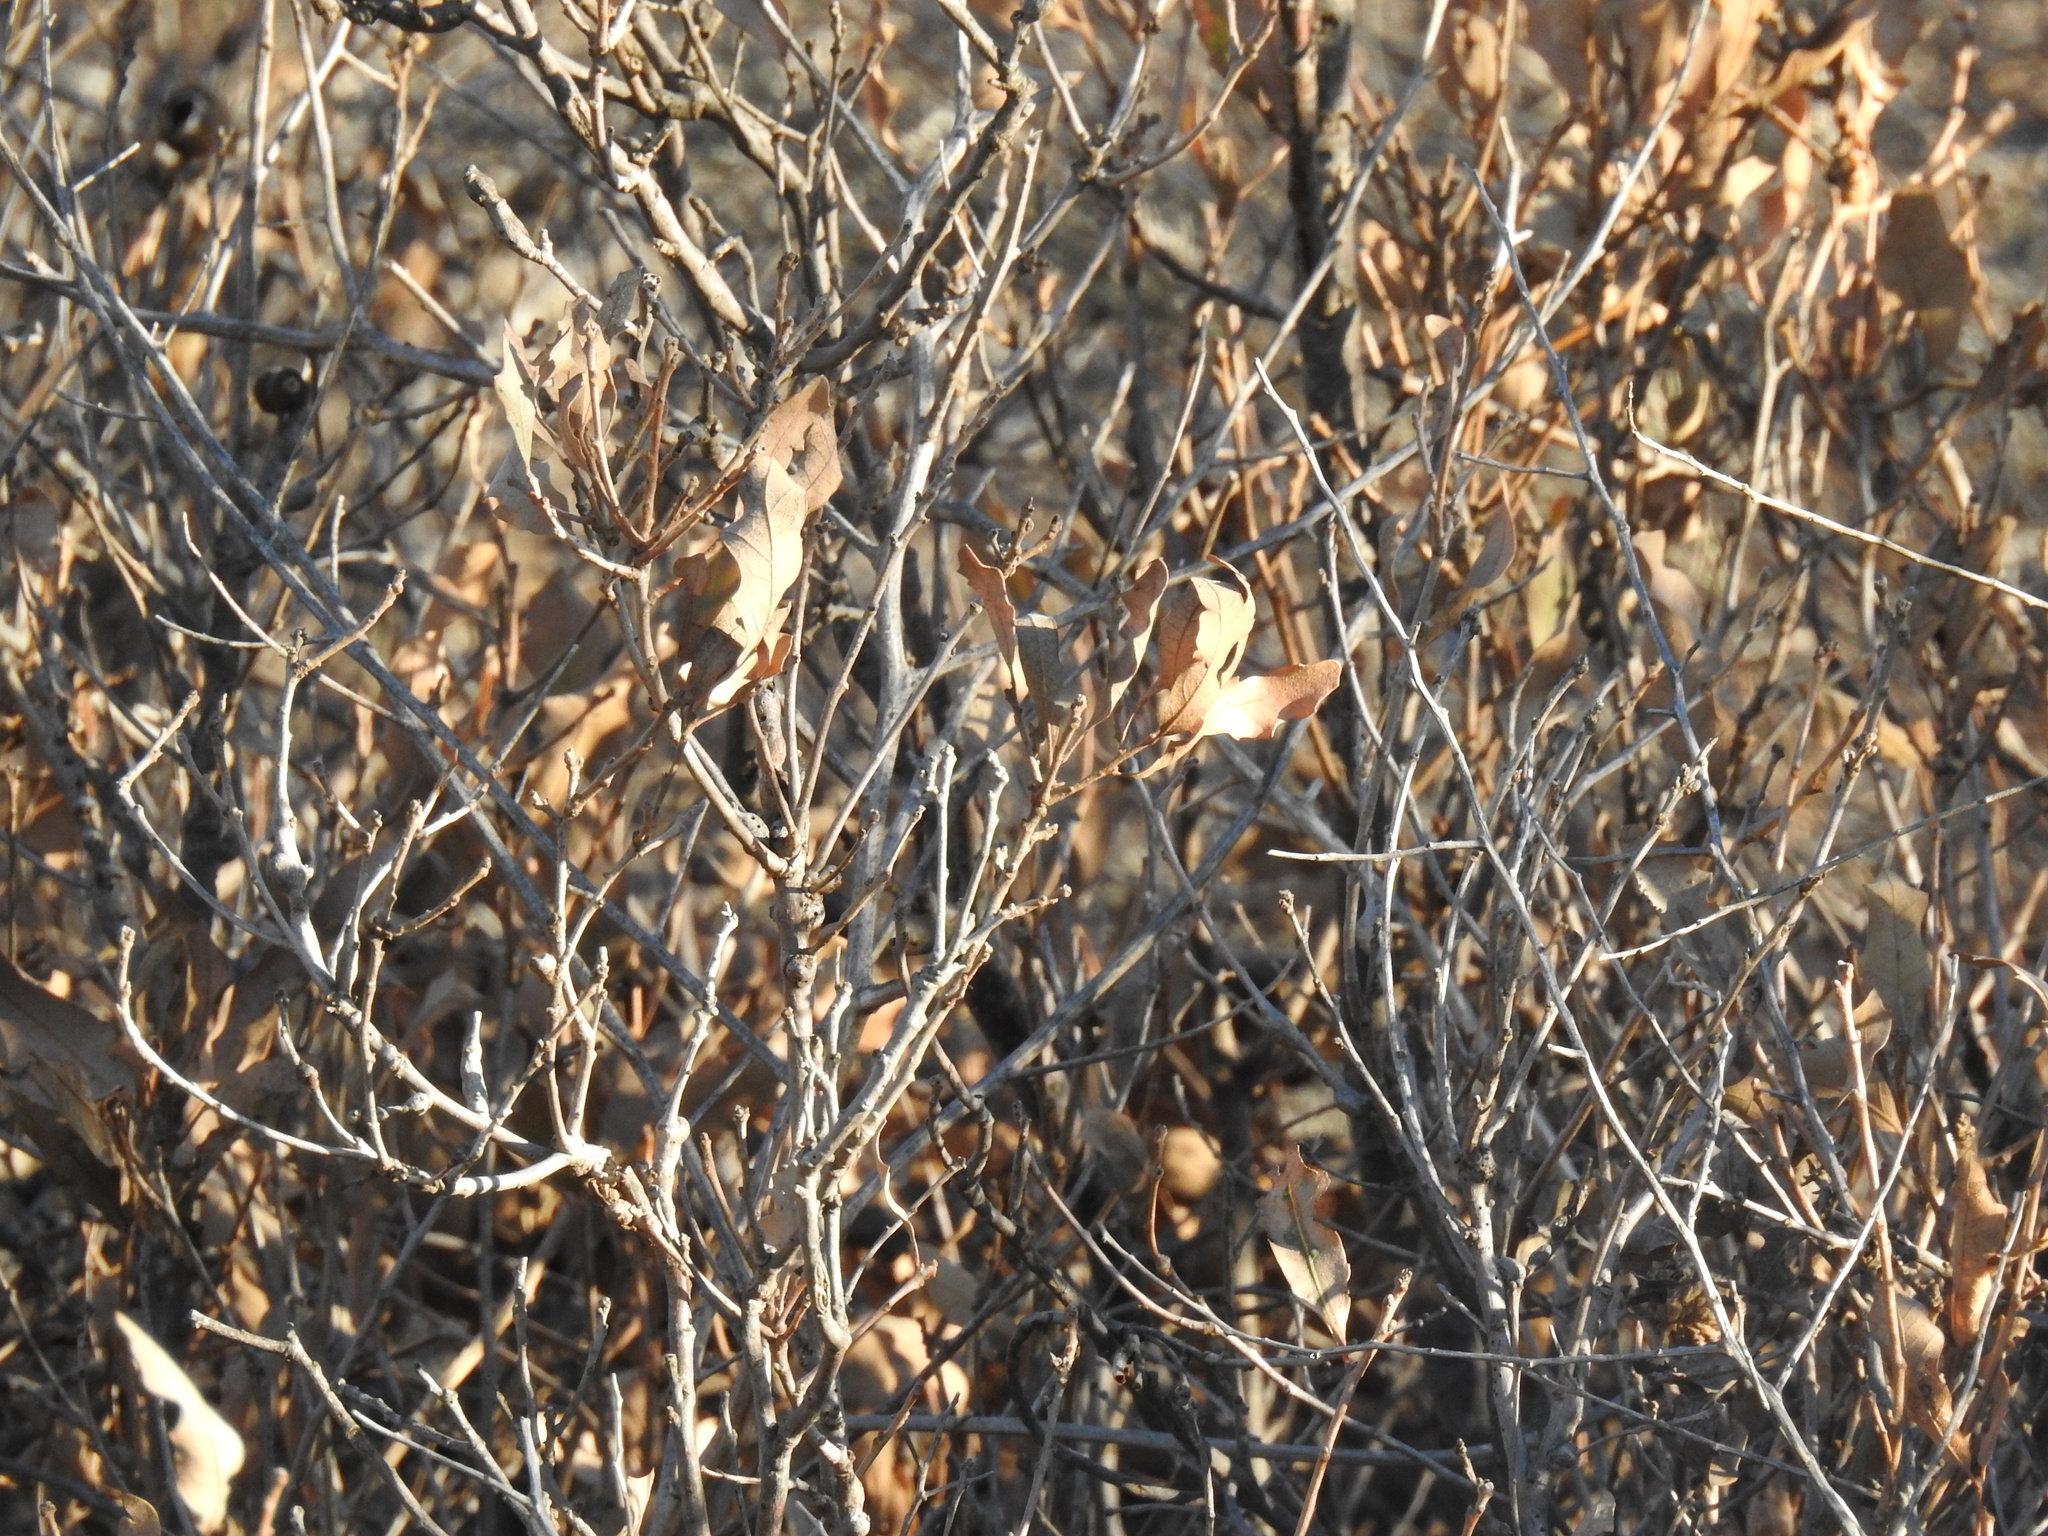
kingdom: Plantae
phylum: Tracheophyta
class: Magnoliopsida
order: Fagales
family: Fagaceae
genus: Quercus
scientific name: Quercus havardii
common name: Shinnery oak
